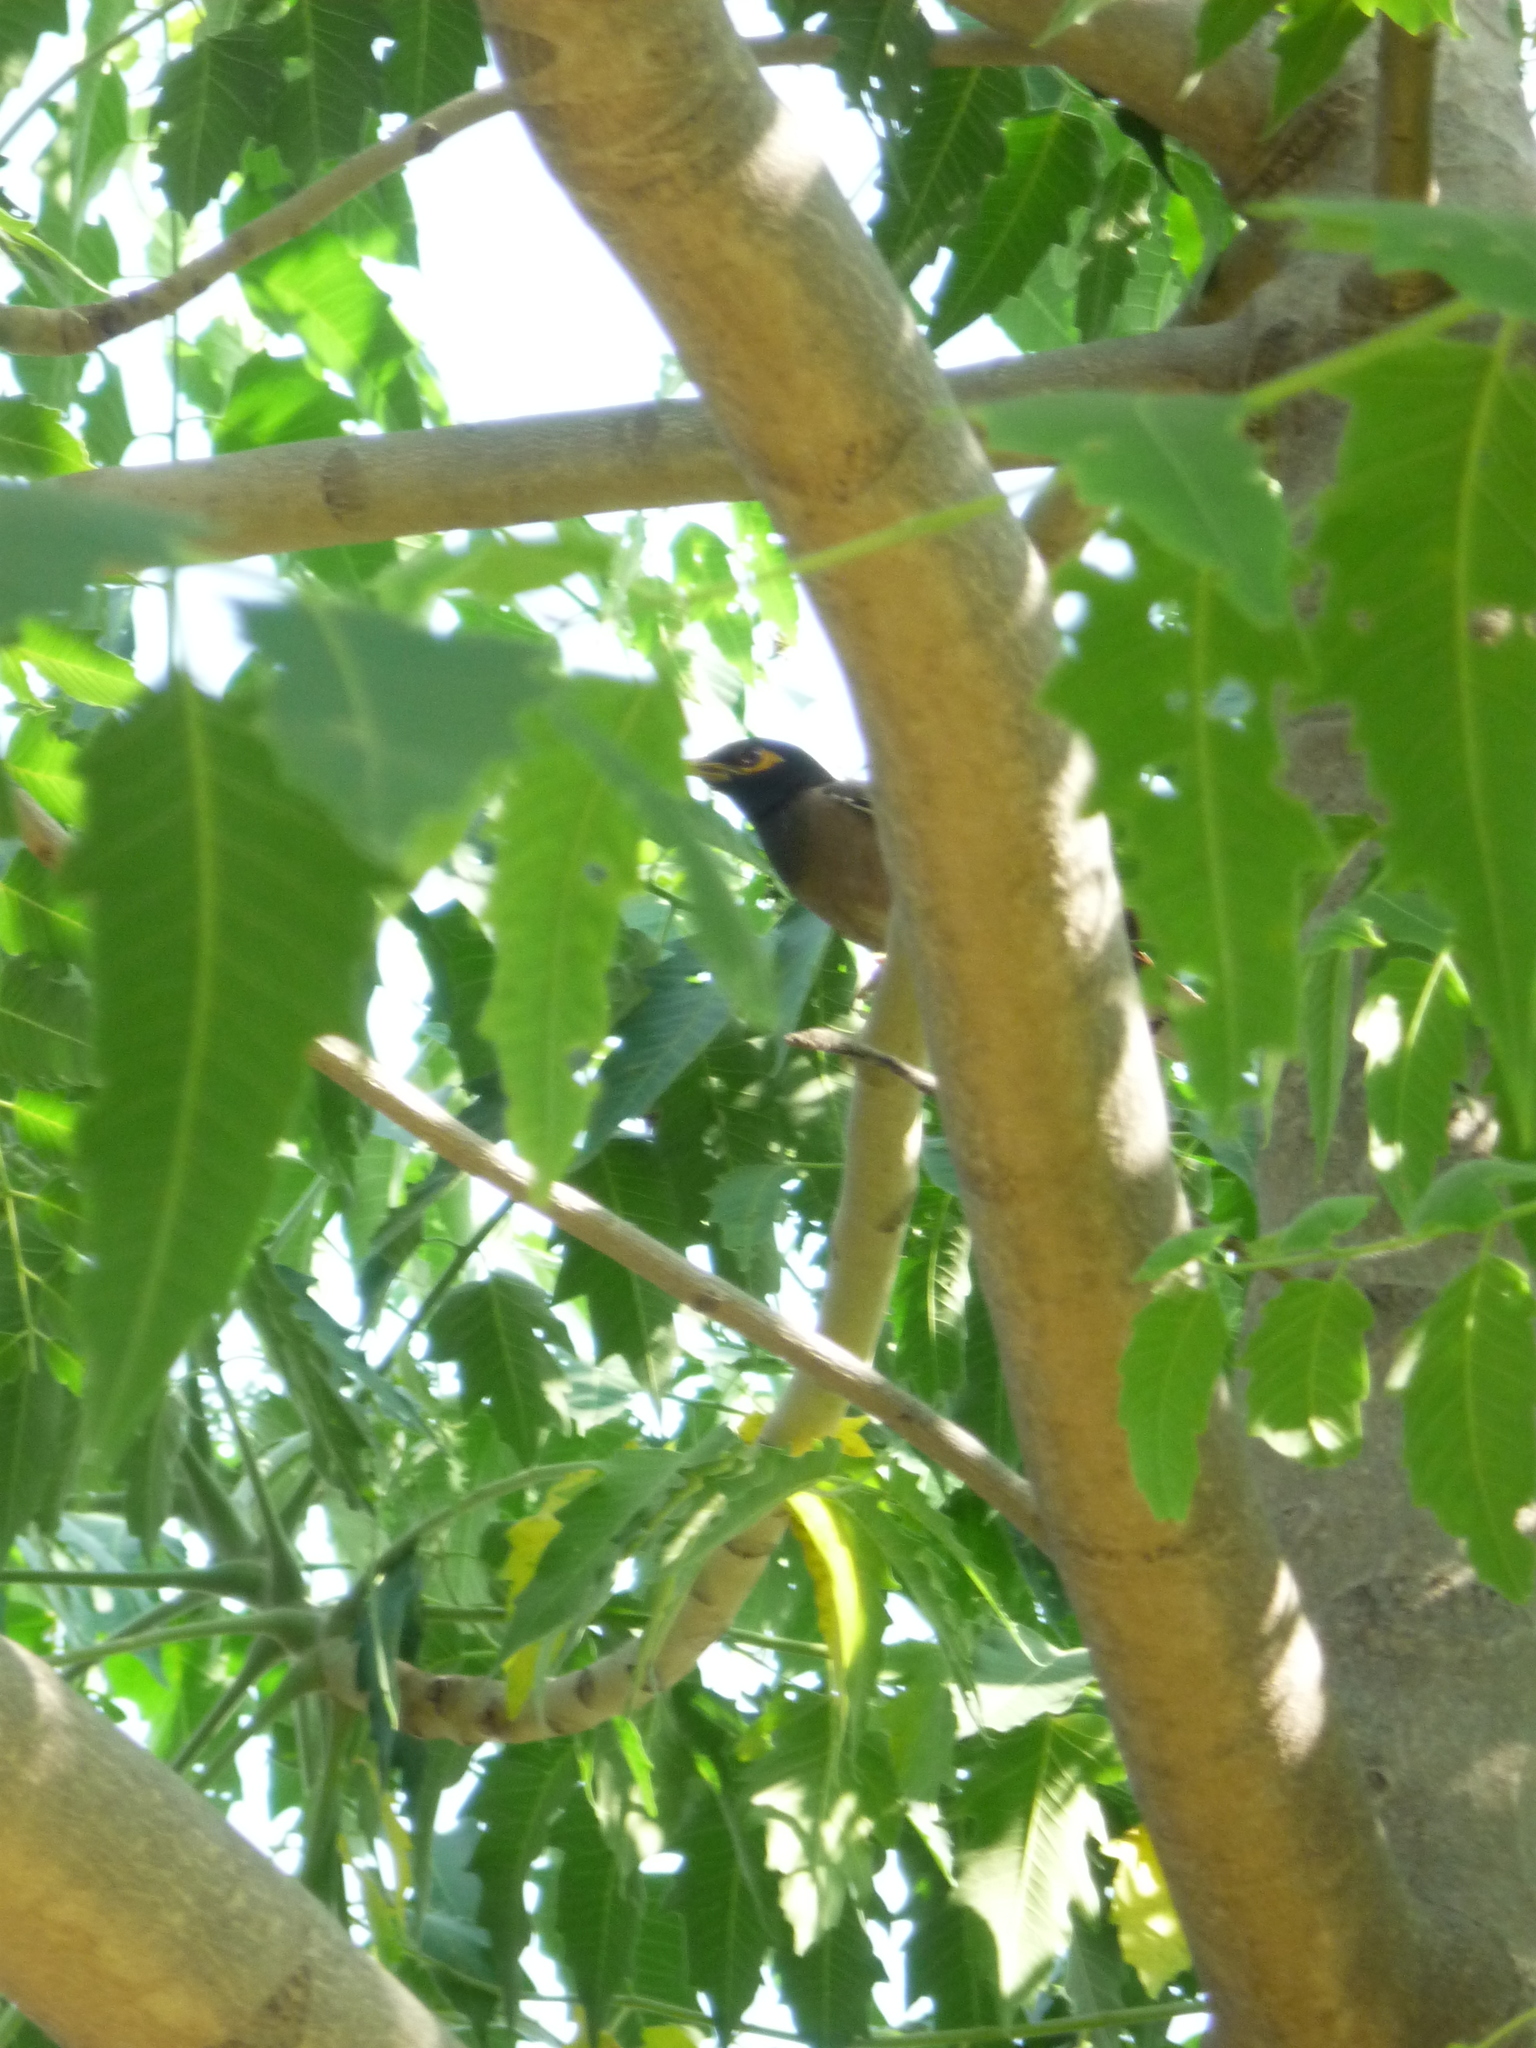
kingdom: Animalia
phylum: Chordata
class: Aves
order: Passeriformes
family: Sturnidae
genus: Acridotheres
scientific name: Acridotheres tristis
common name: Common myna
